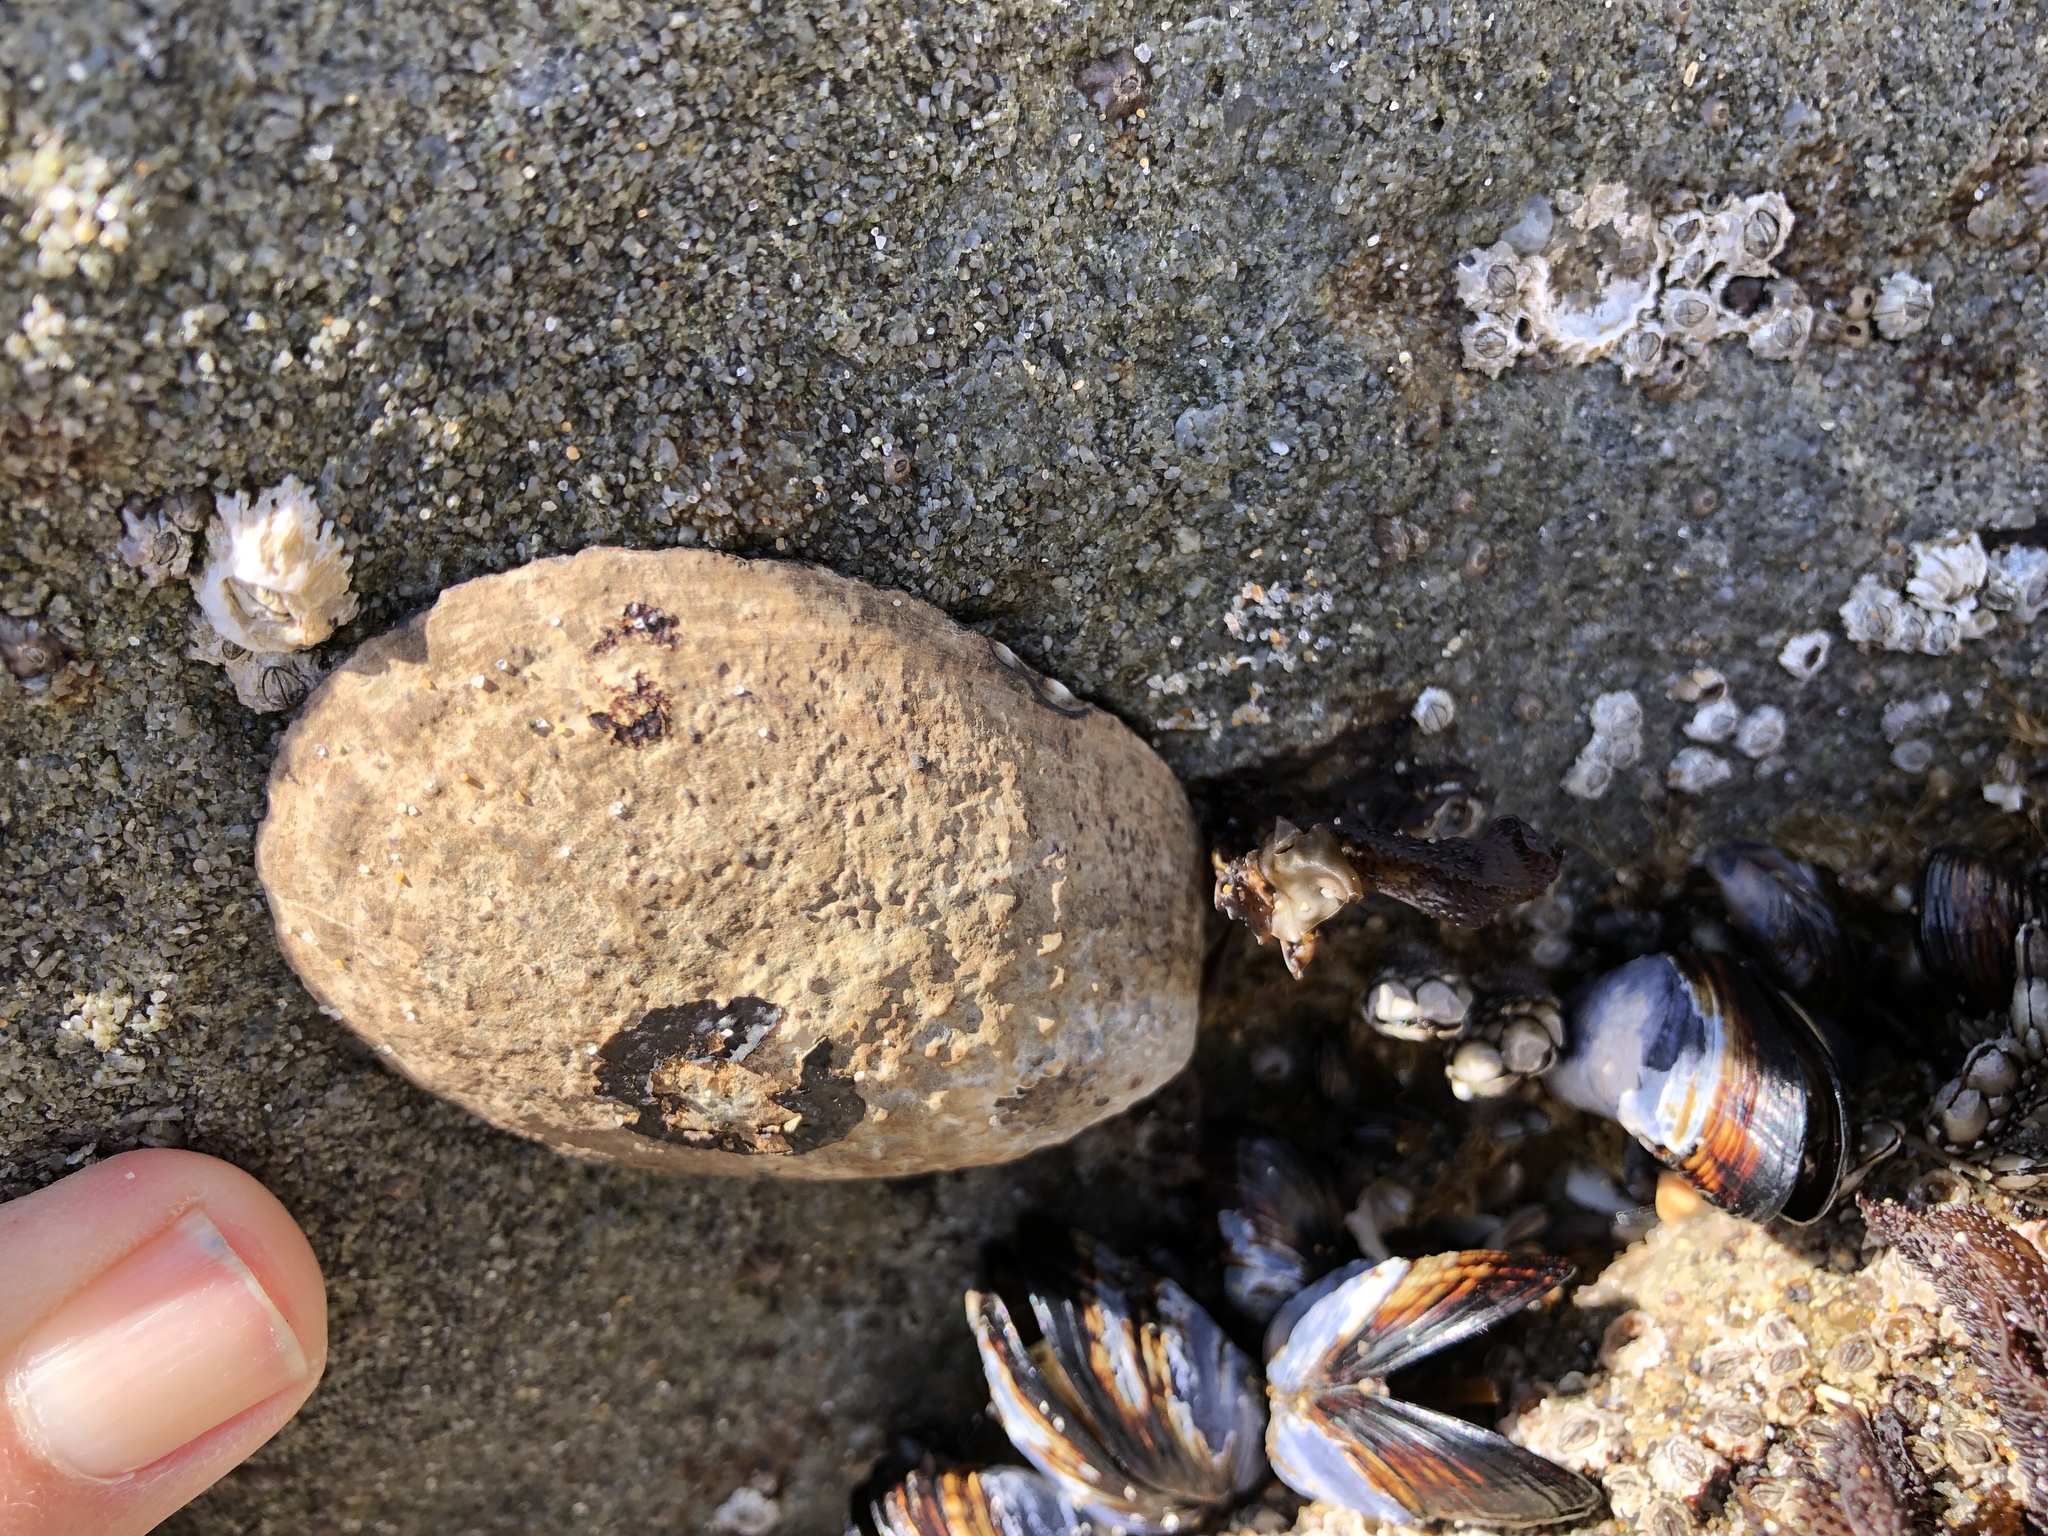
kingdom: Animalia
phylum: Mollusca
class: Gastropoda
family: Lottiidae
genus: Lottia
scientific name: Lottia gigantea
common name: Owl limpet
